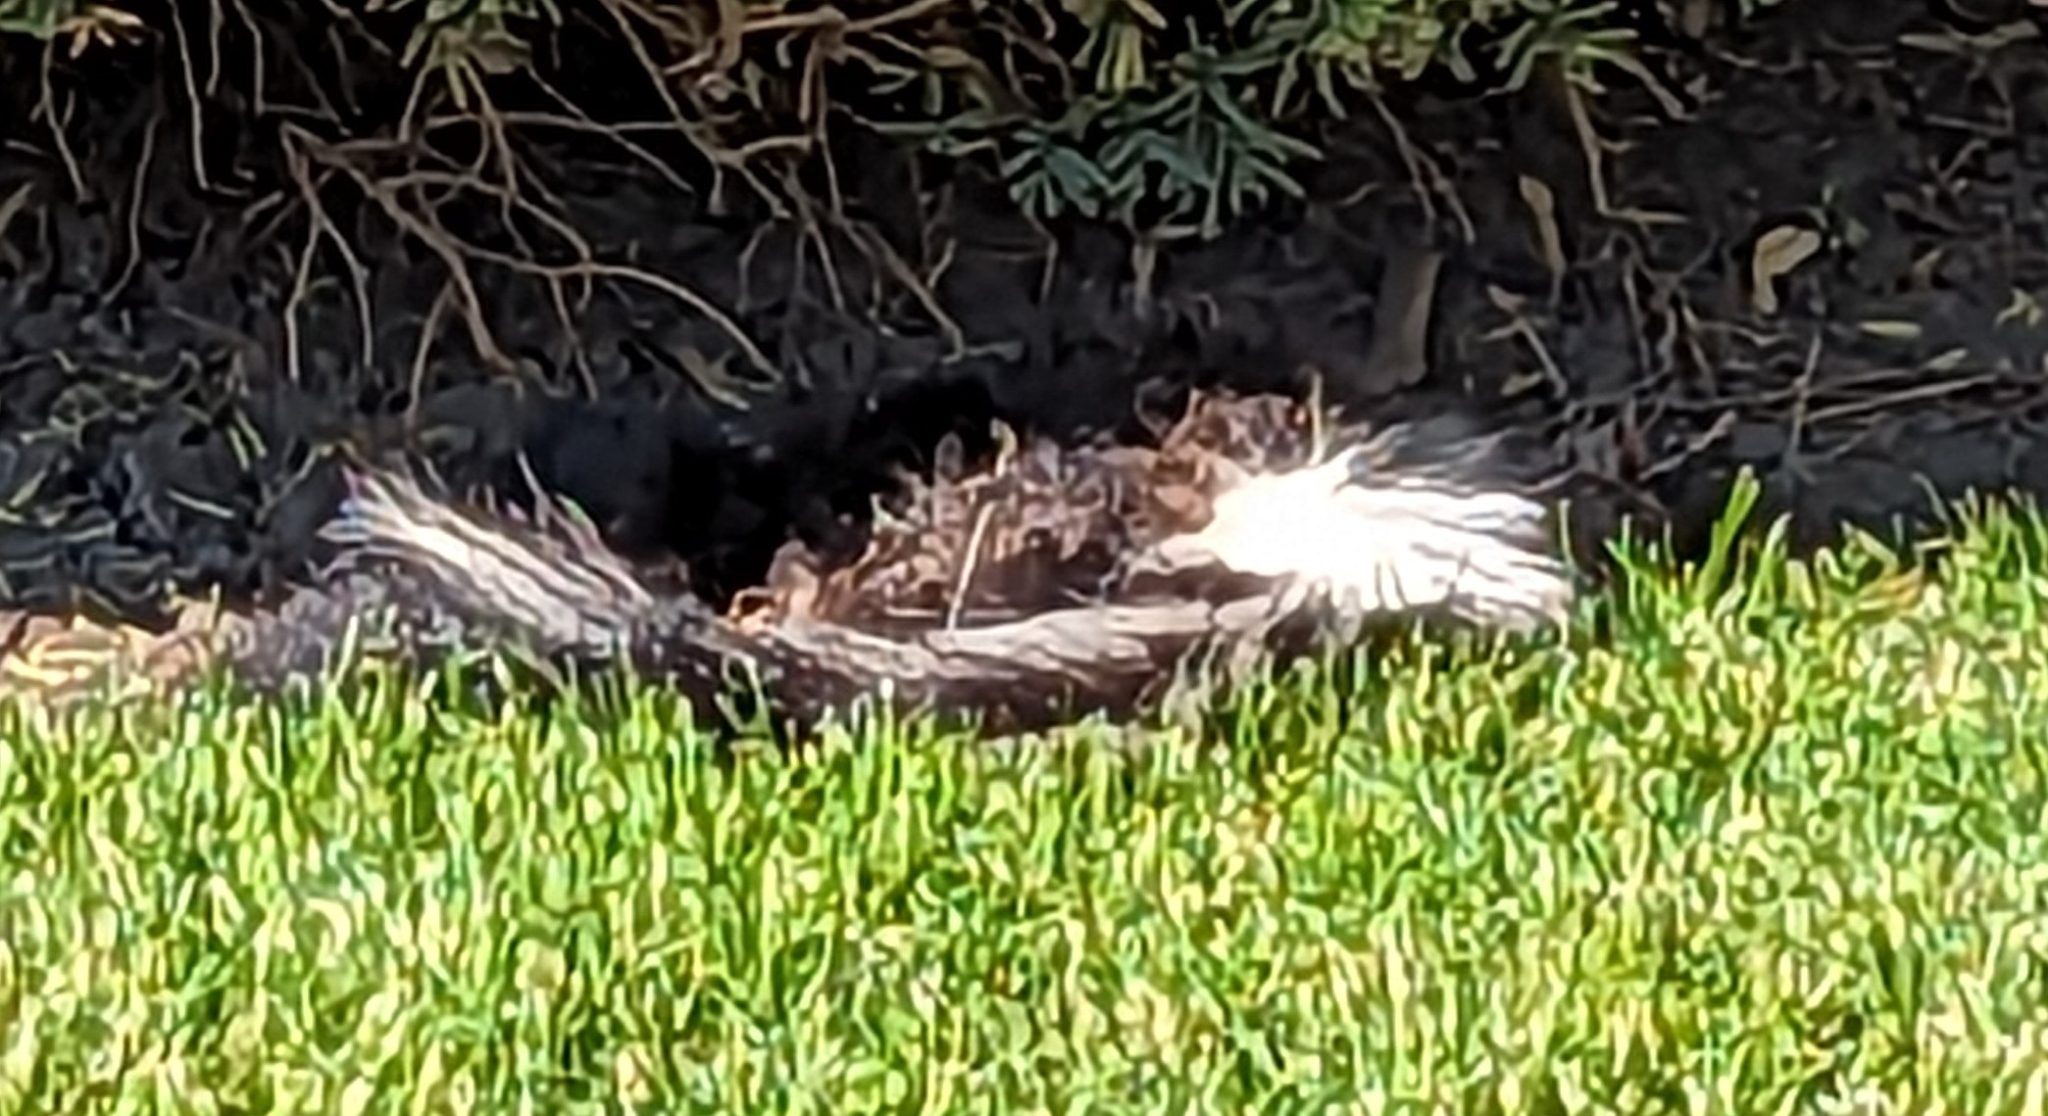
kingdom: Animalia
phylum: Chordata
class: Mammalia
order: Carnivora
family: Mephitidae
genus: Mephitis
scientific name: Mephitis mephitis
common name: Striped skunk
